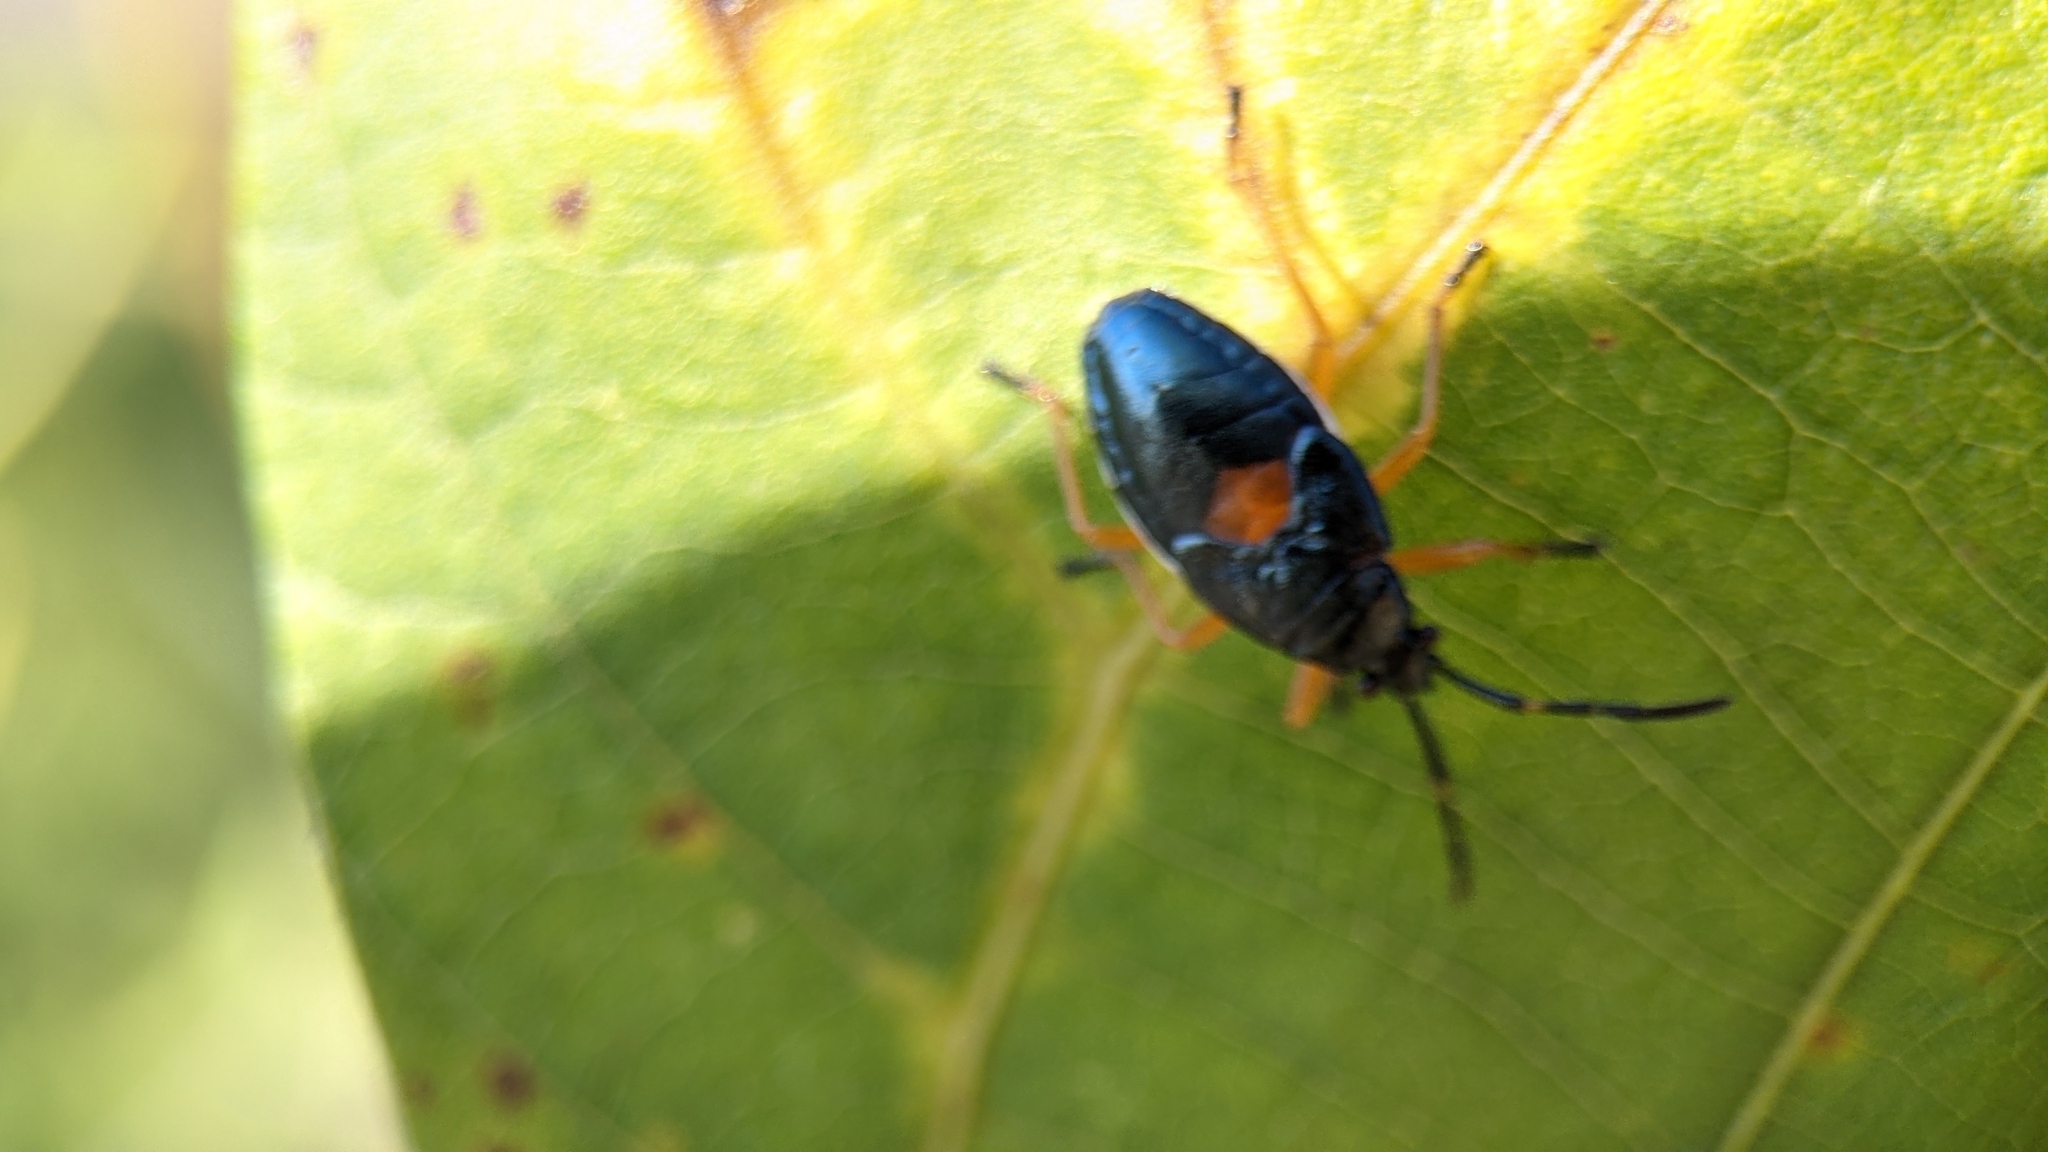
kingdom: Animalia
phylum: Arthropoda
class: Insecta
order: Hemiptera
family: Largidae
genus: Largus
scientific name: Largus succinctus
